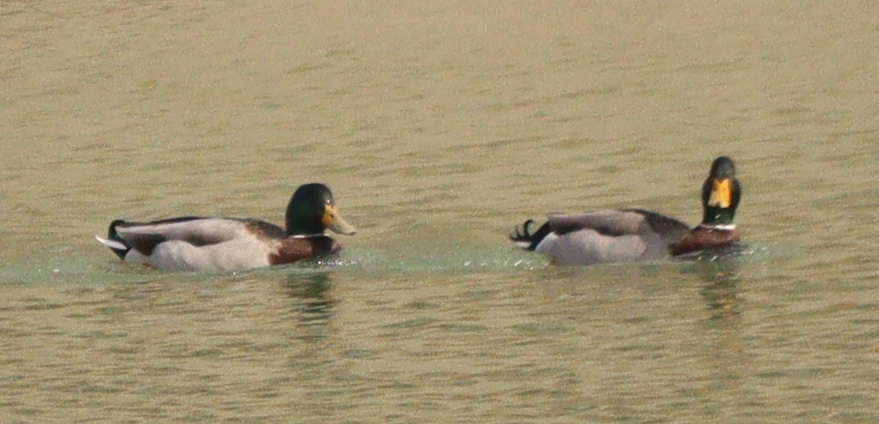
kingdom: Animalia
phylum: Chordata
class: Aves
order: Anseriformes
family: Anatidae
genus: Anas
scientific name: Anas platyrhynchos
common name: Mallard
